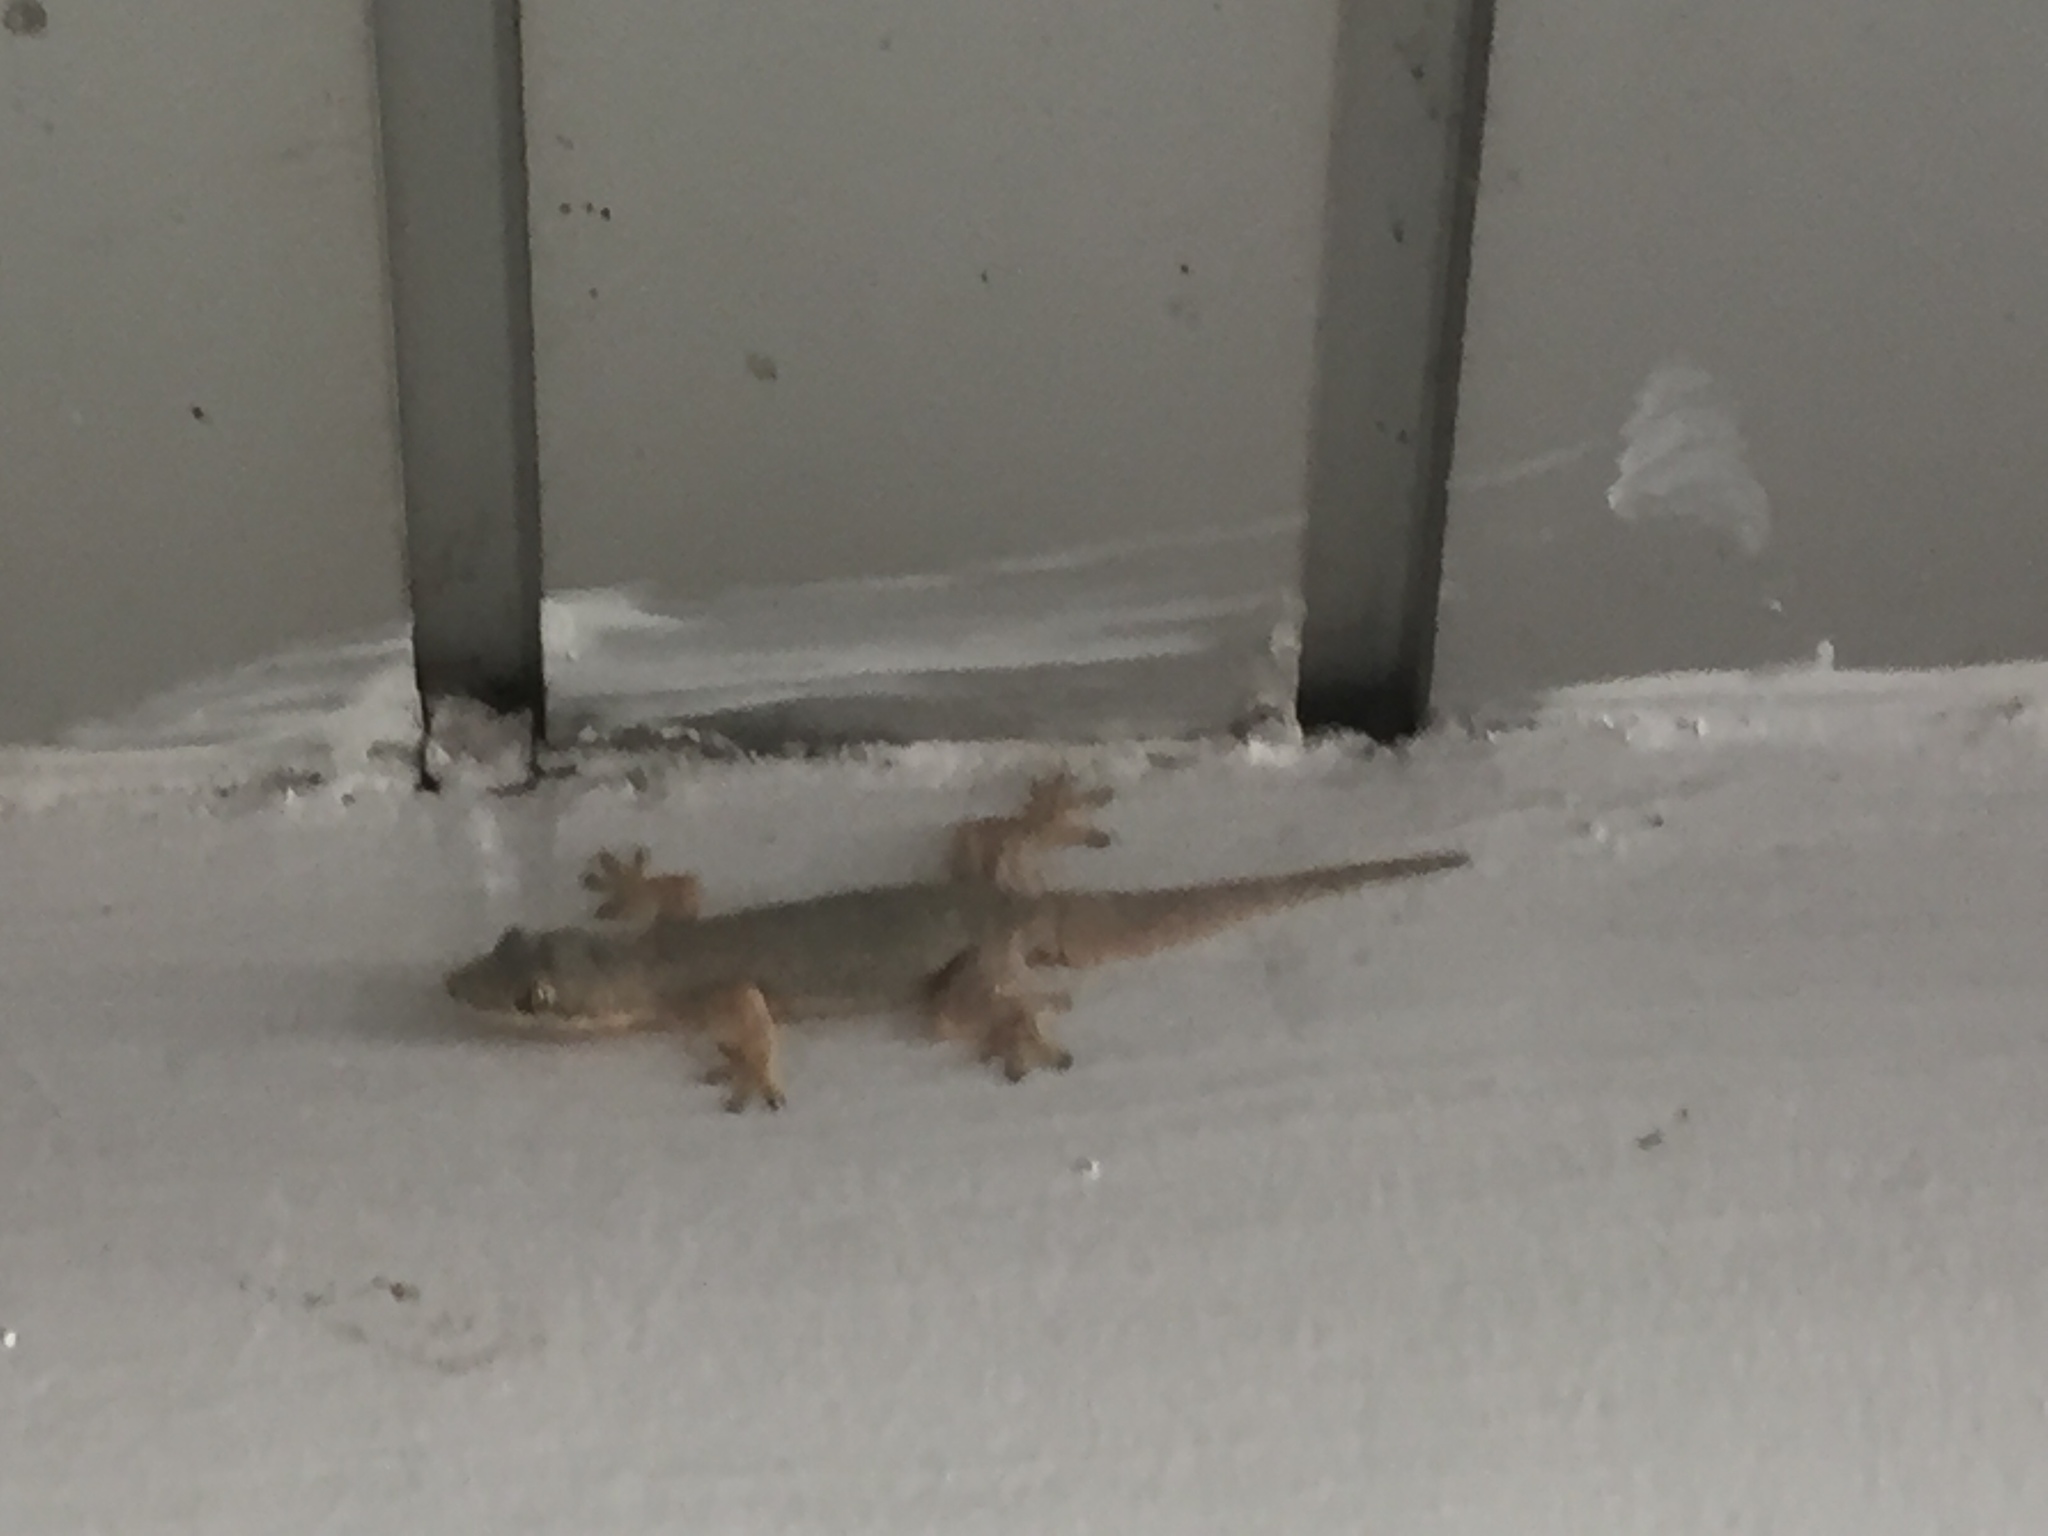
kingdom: Animalia
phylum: Chordata
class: Squamata
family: Gekkonidae
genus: Hemidactylus
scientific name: Hemidactylus platyurus
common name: Flat-tailed house gecko
